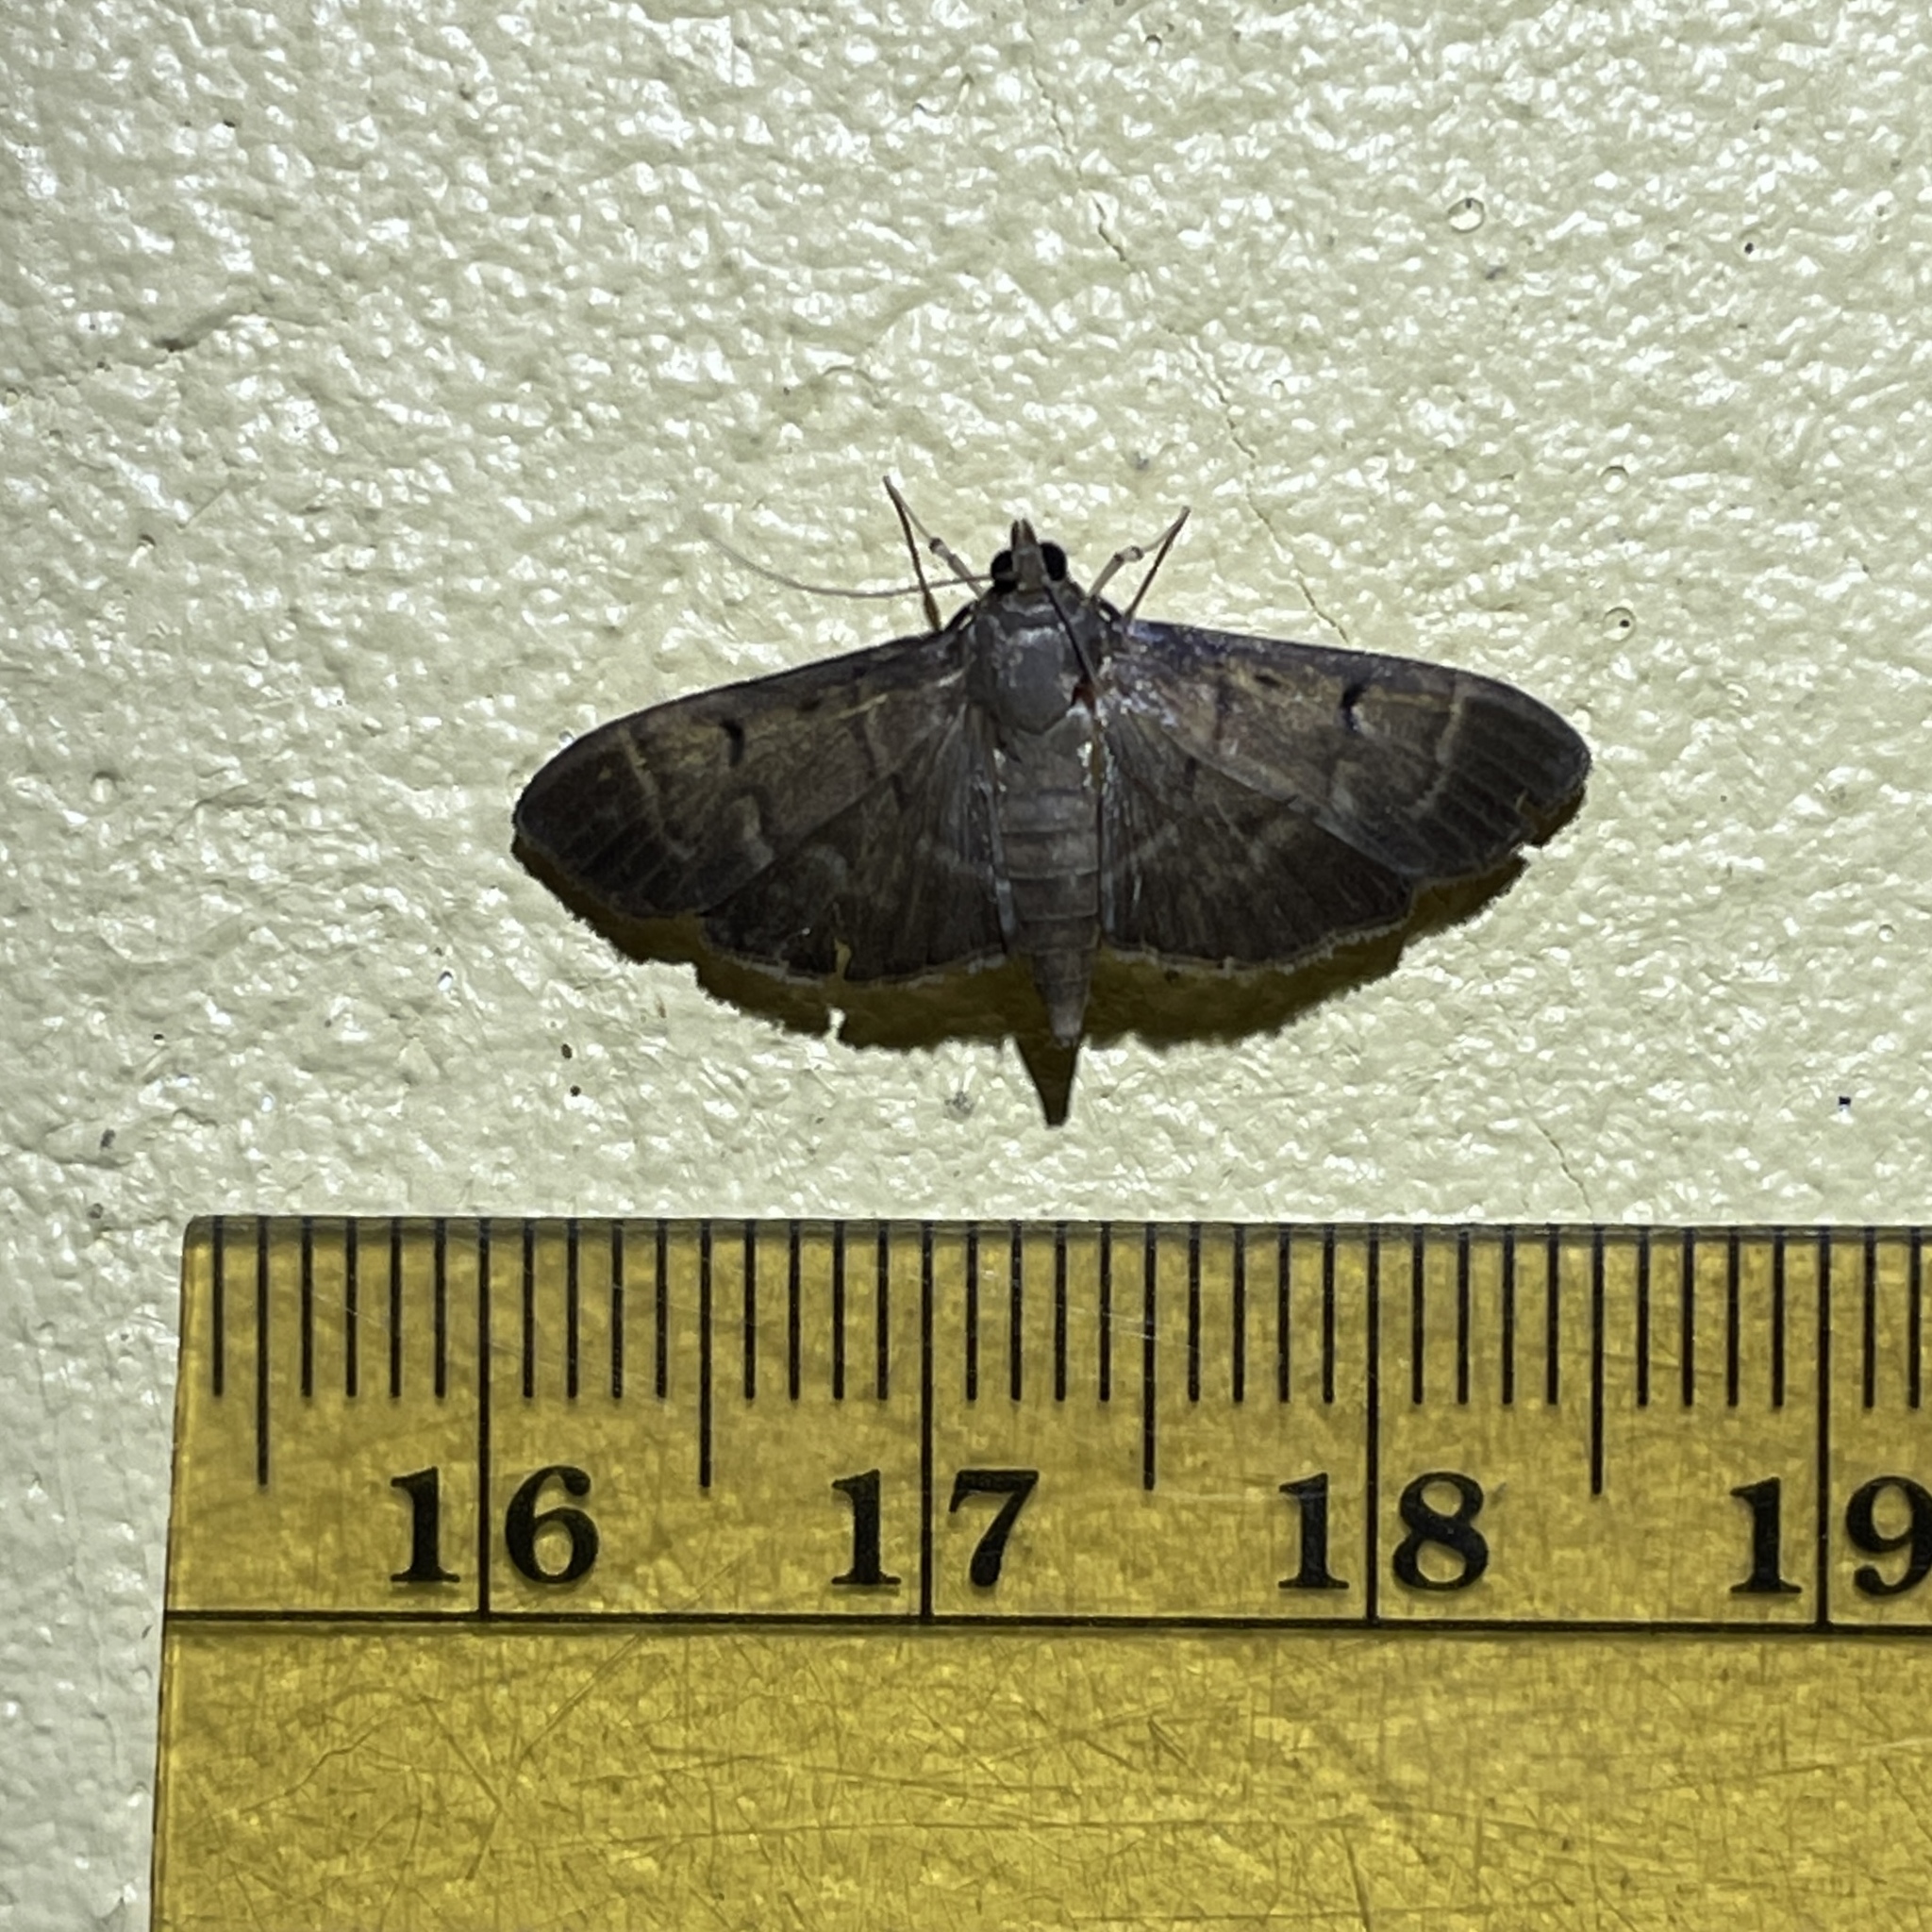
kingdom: Animalia
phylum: Arthropoda
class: Insecta
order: Lepidoptera
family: Crambidae
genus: Herpetogramma
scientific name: Herpetogramma patagialis
